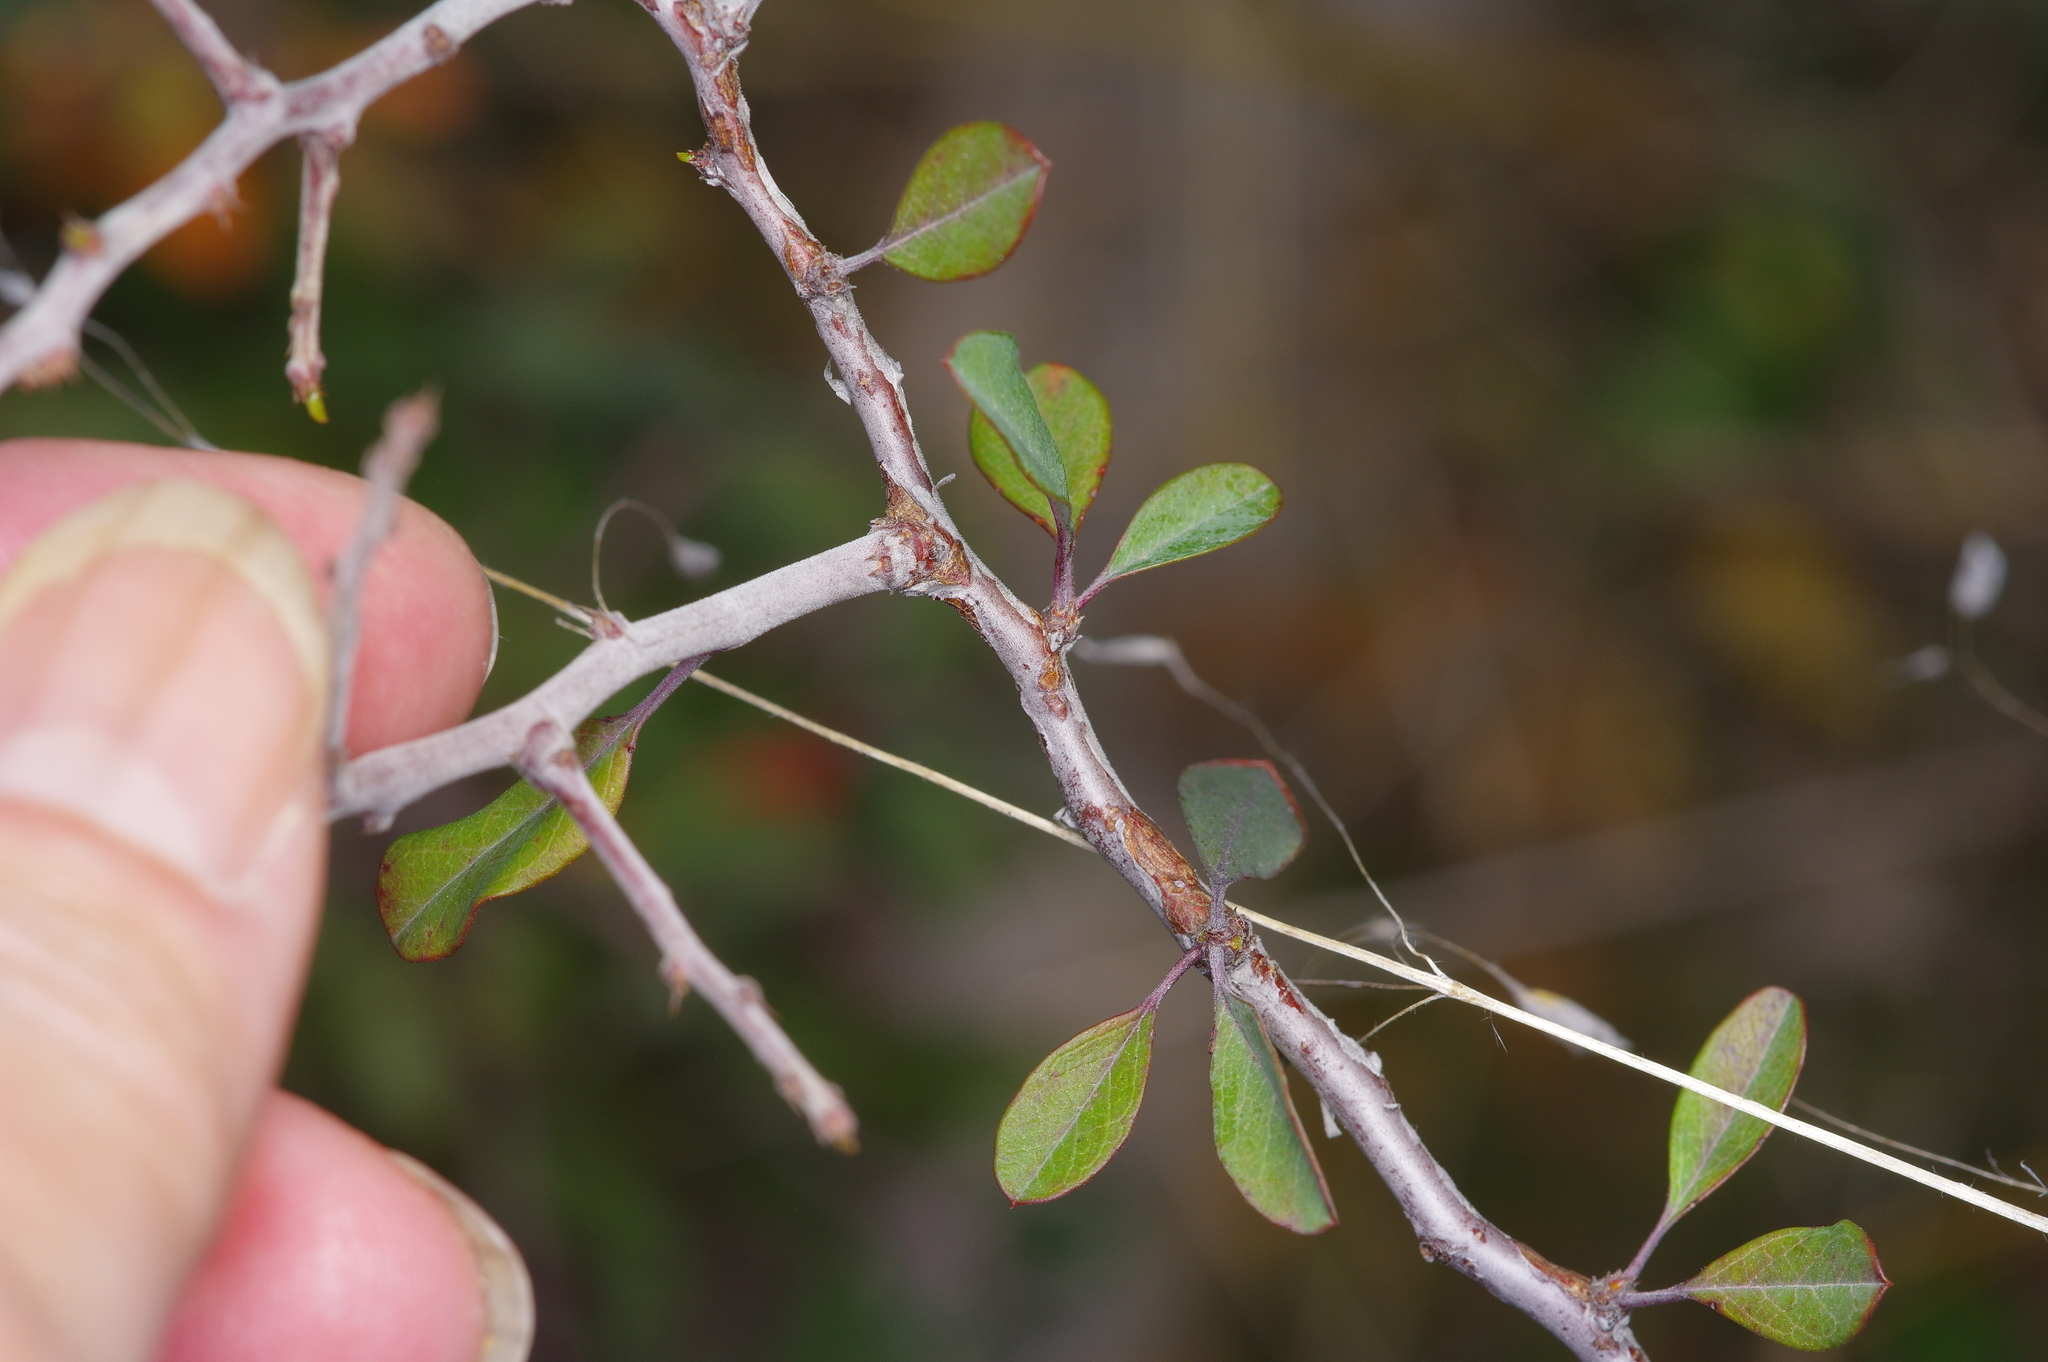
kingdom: Plantae
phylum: Tracheophyta
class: Magnoliopsida
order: Rosales
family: Rosaceae
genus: Prunus
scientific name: Prunus minutiflora
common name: Texas almond
